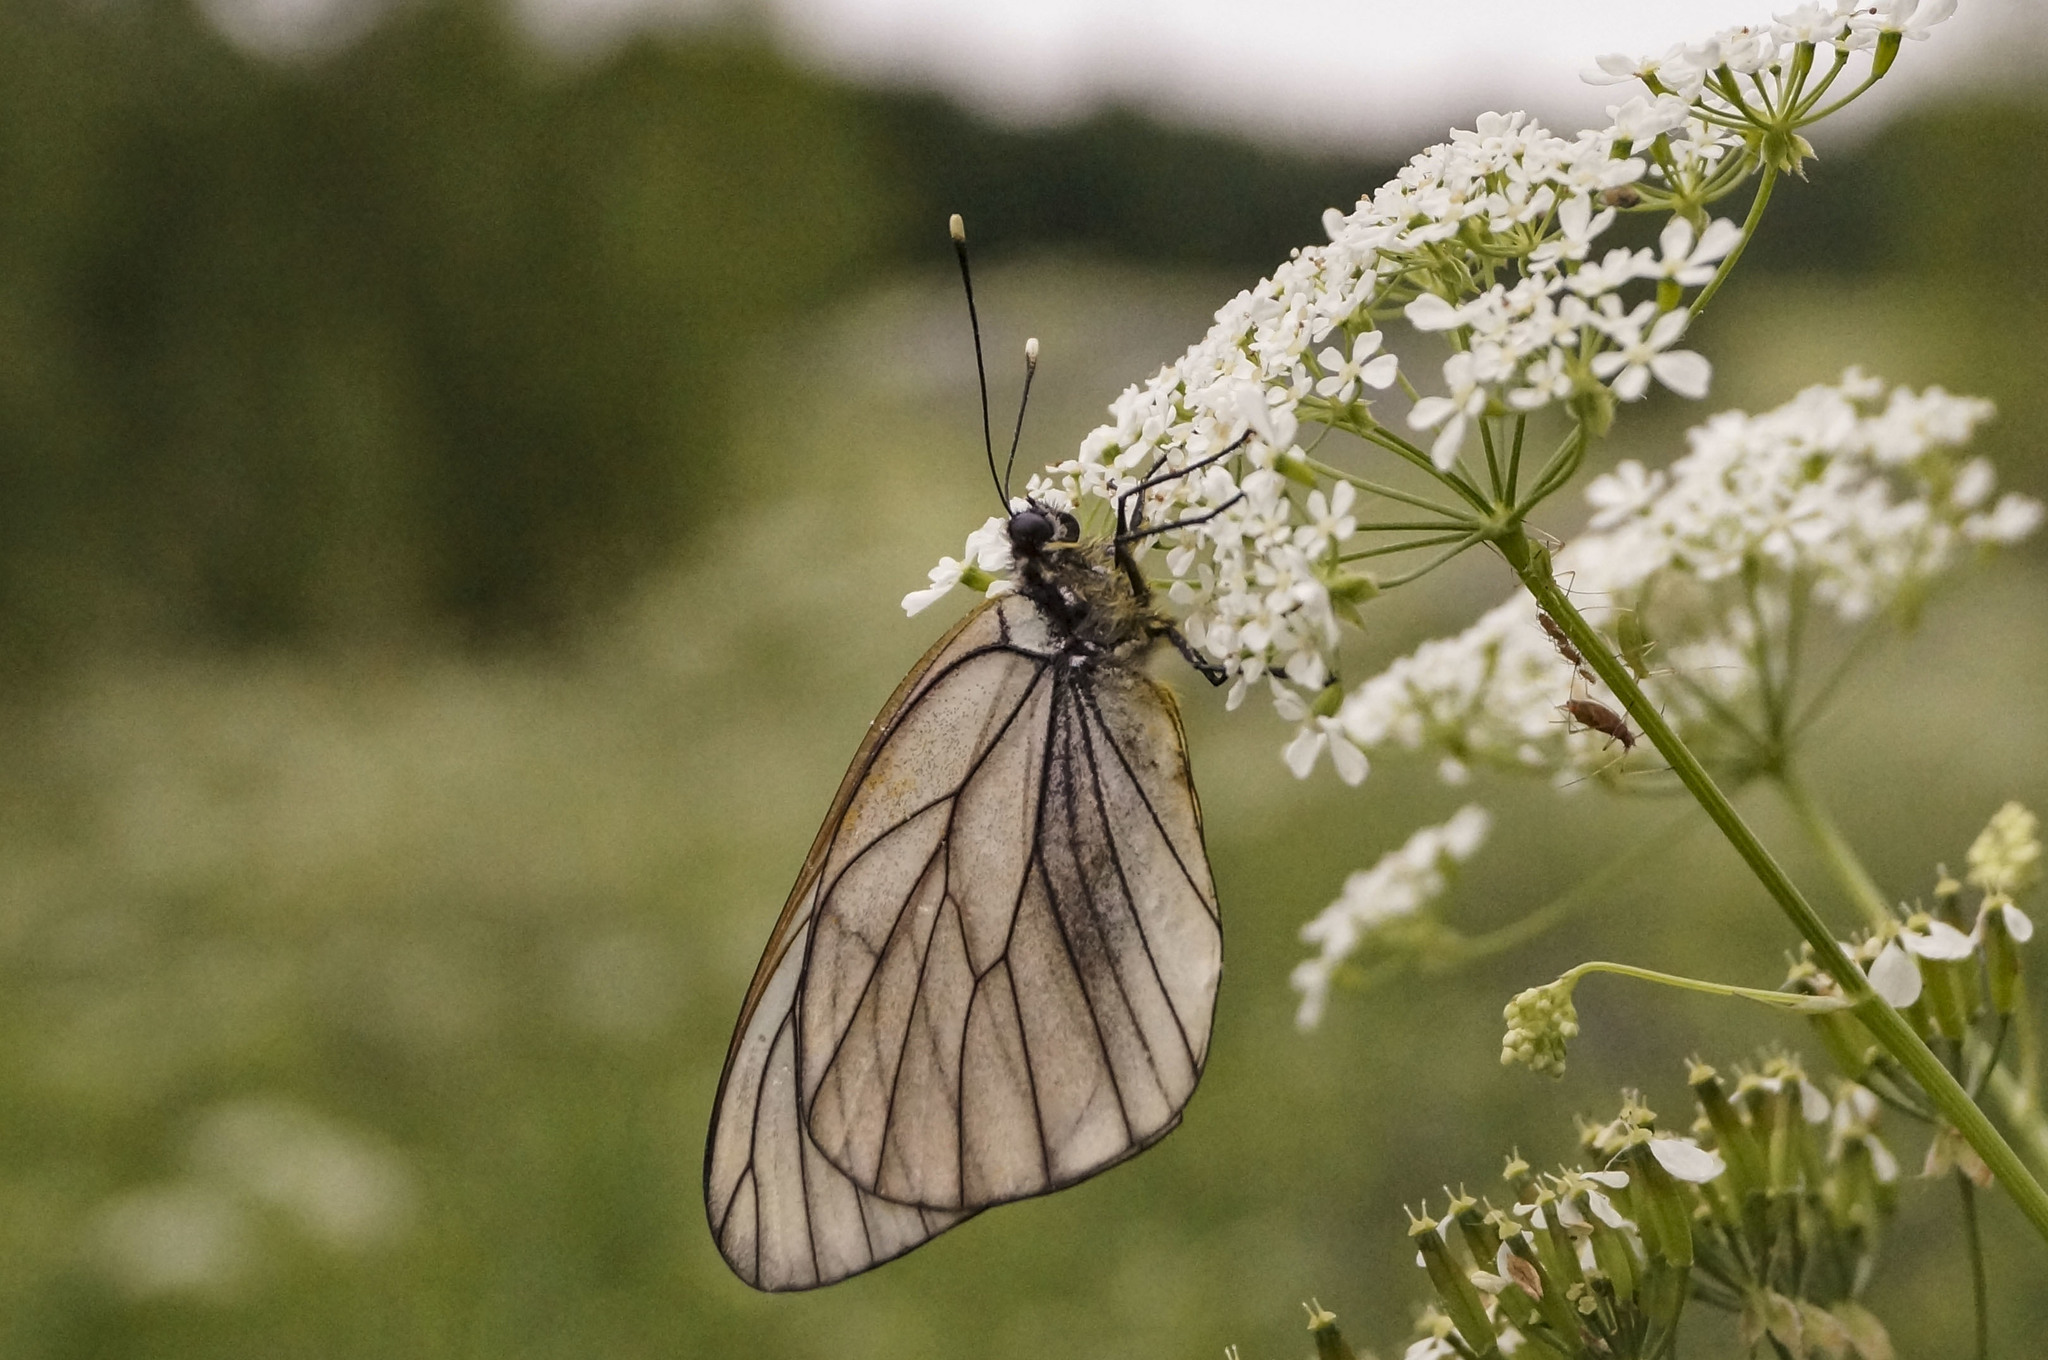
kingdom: Animalia
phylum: Arthropoda
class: Insecta
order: Lepidoptera
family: Pieridae
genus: Aporia
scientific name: Aporia crataegi
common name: Black-veined white
